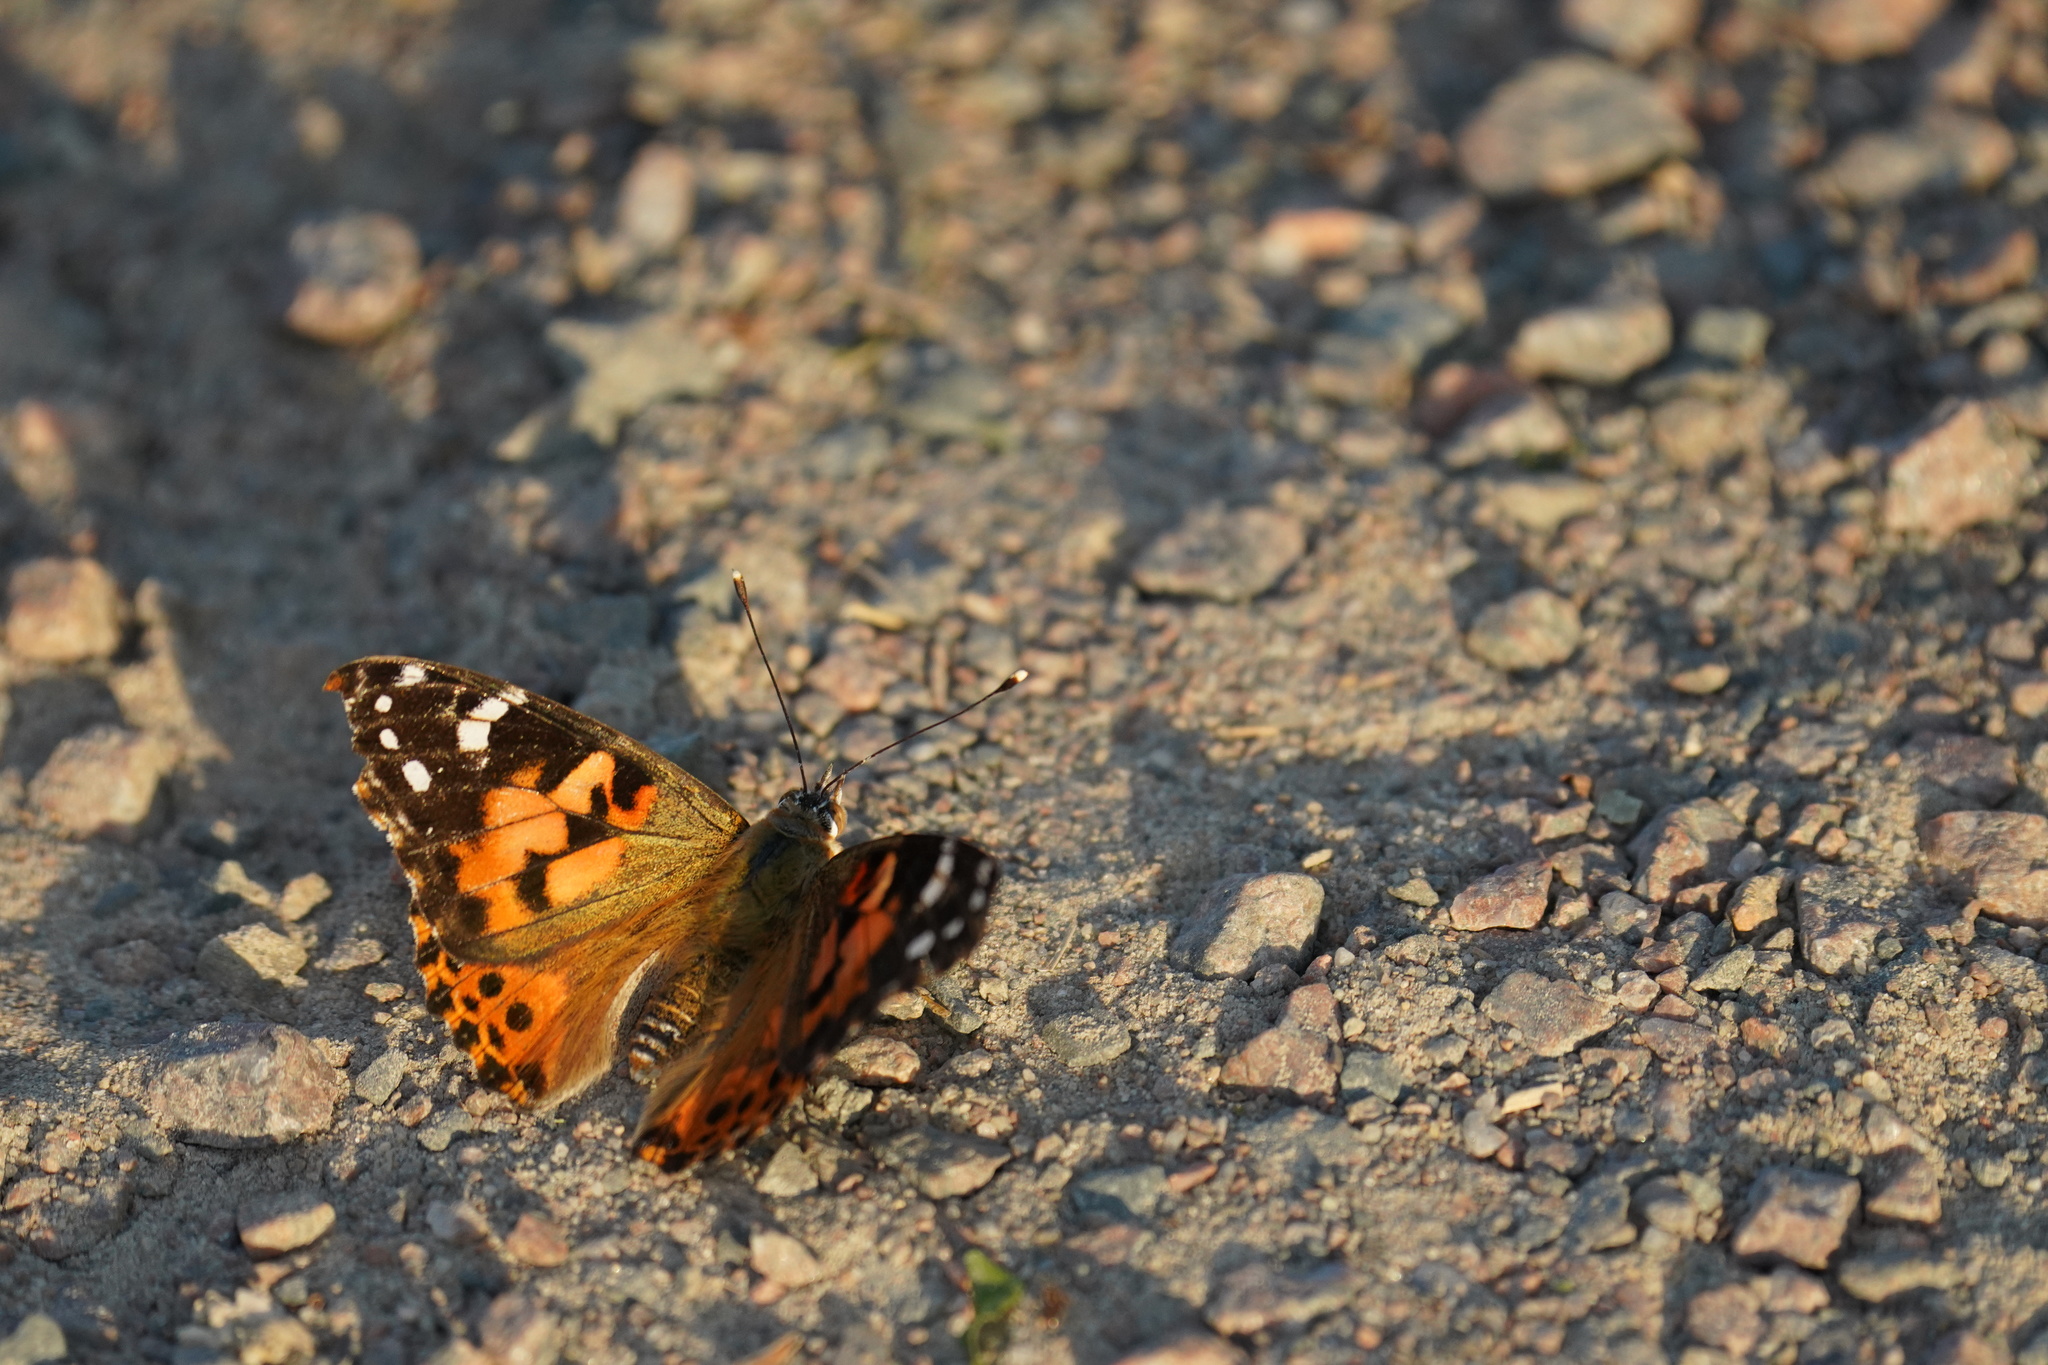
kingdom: Animalia
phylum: Arthropoda
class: Insecta
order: Lepidoptera
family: Nymphalidae
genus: Vanessa
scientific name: Vanessa cardui
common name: Painted lady
